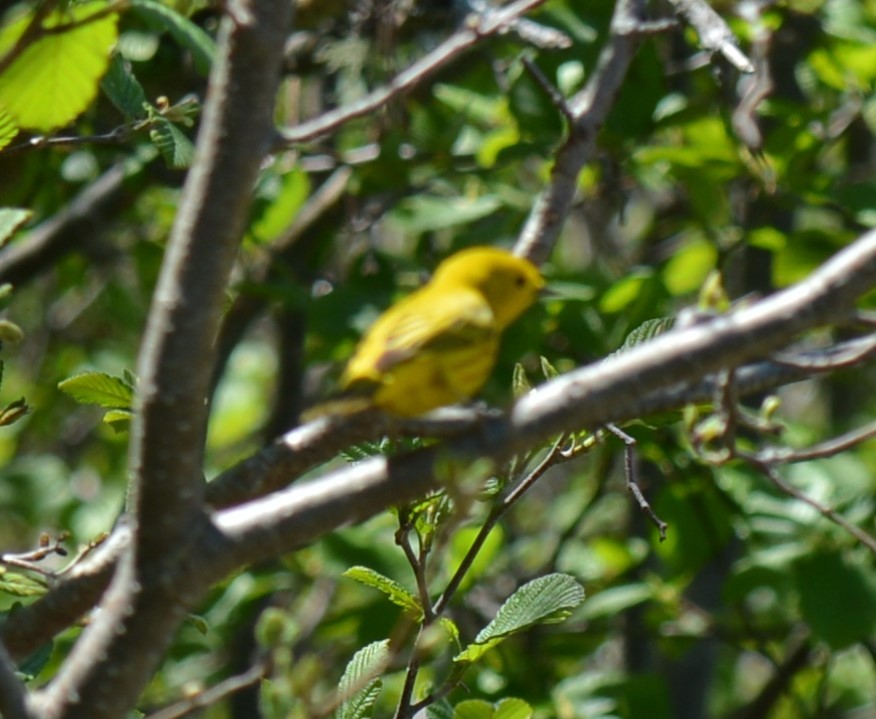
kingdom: Animalia
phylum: Chordata
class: Aves
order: Passeriformes
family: Parulidae
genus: Setophaga
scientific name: Setophaga petechia
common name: Yellow warbler
